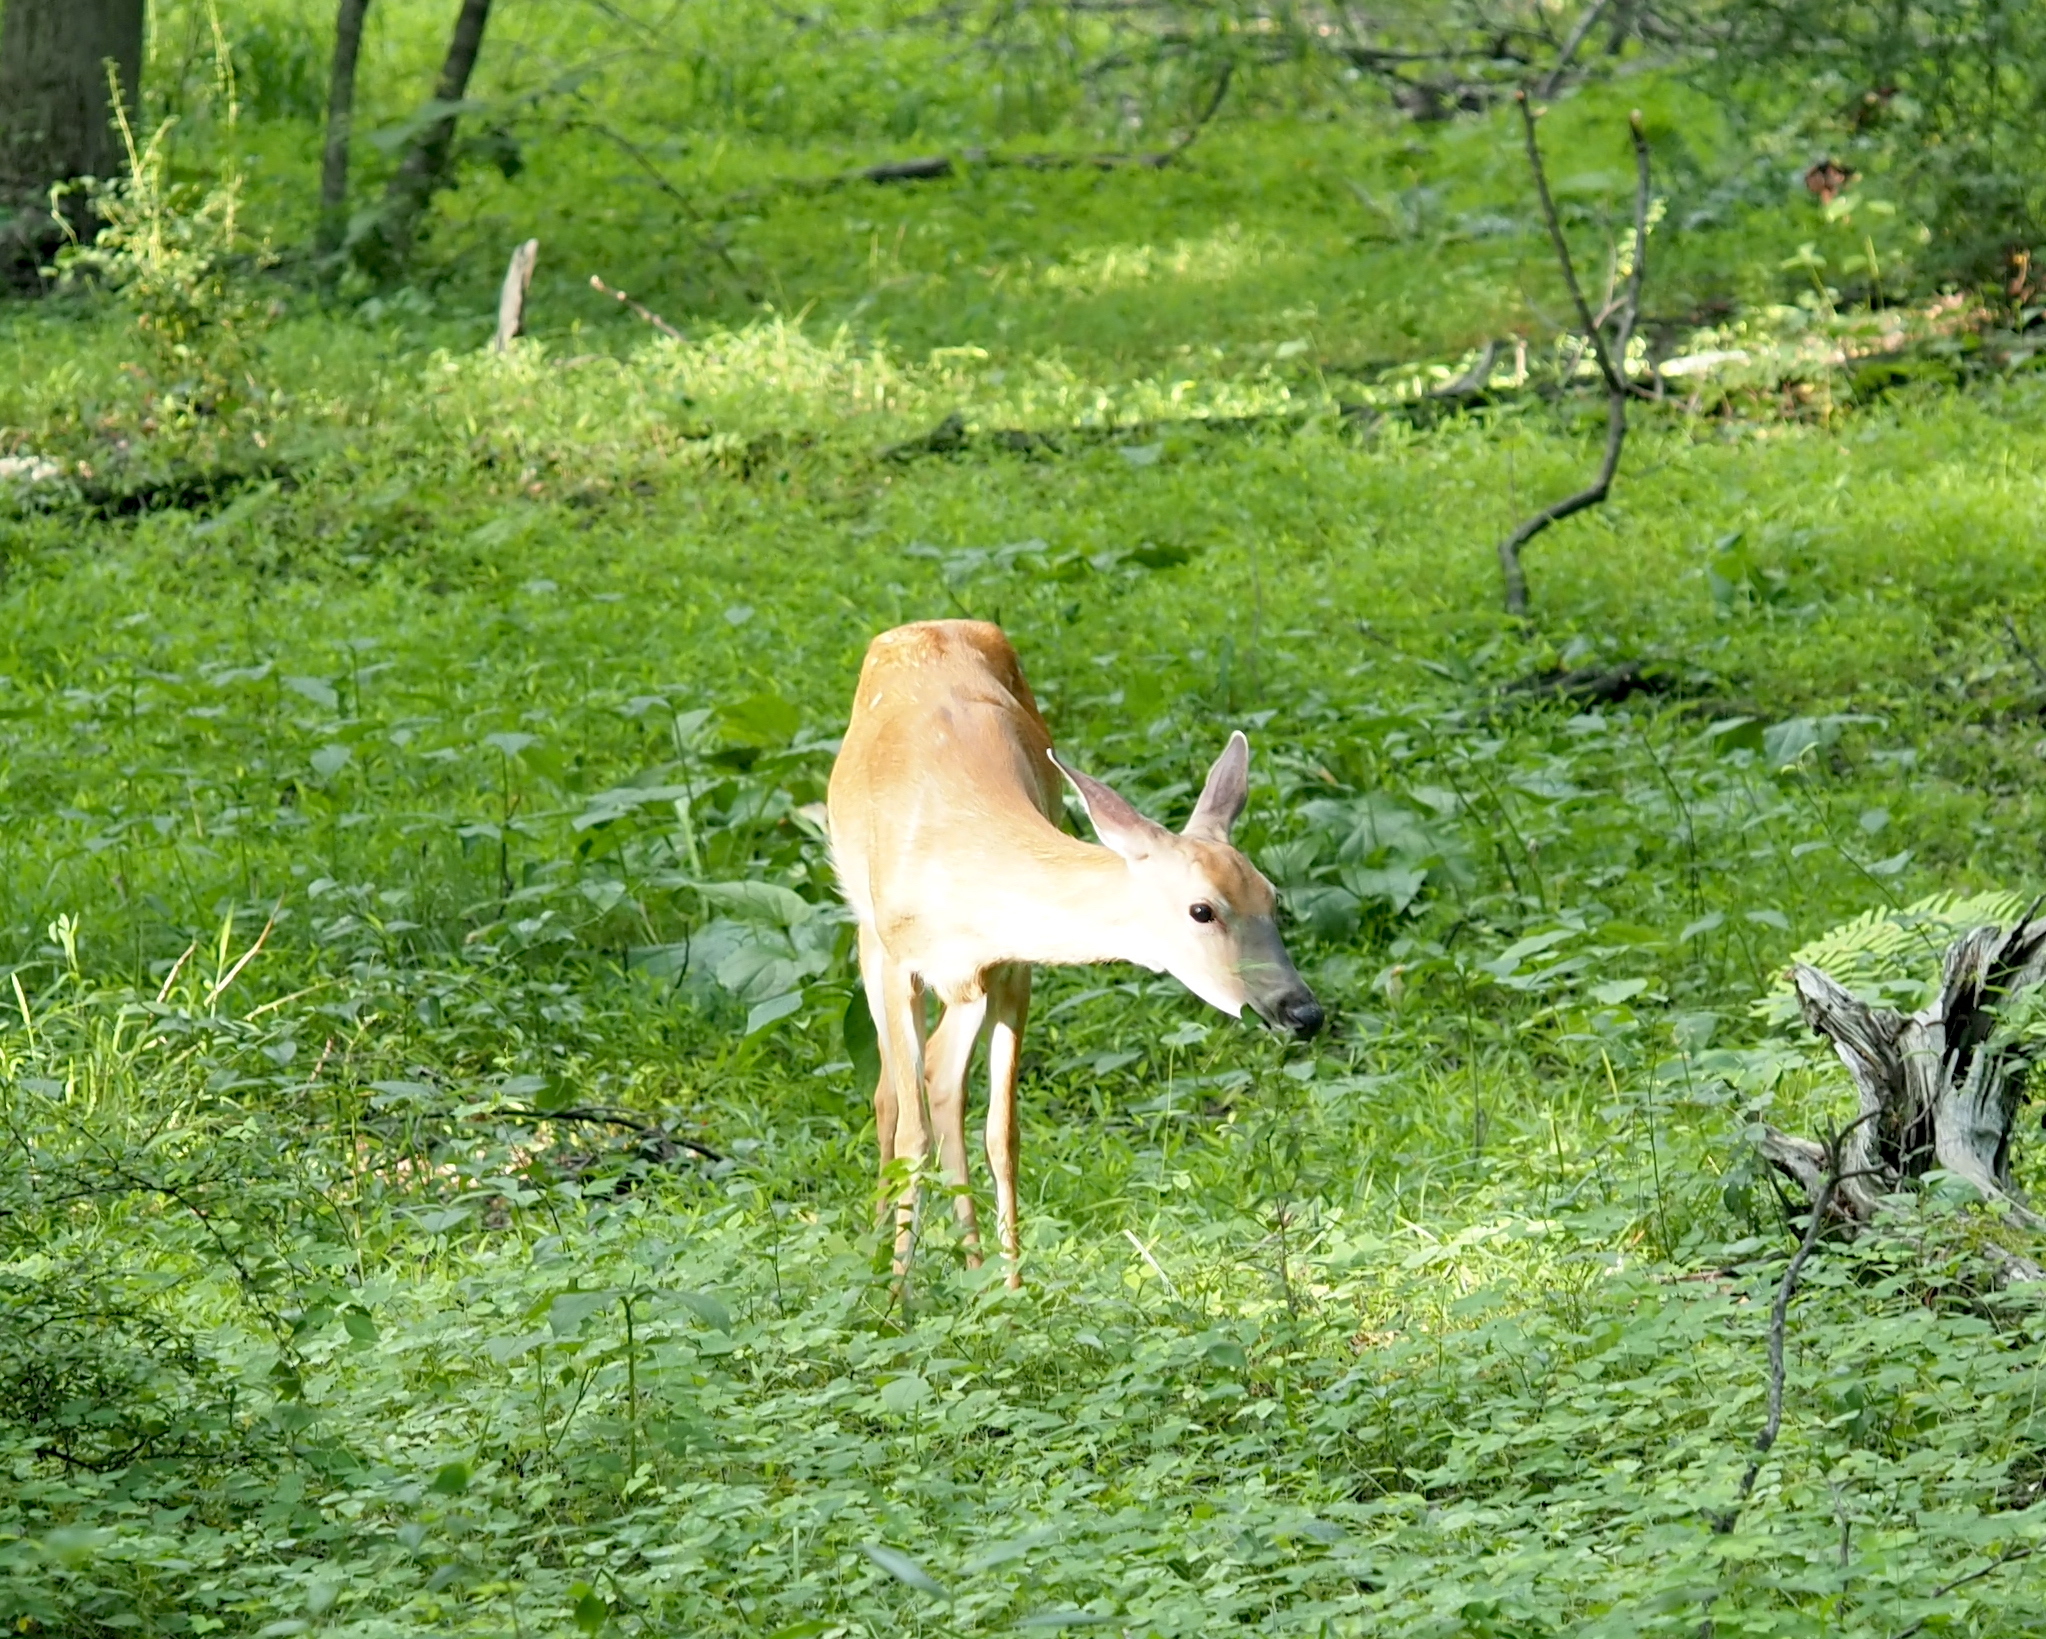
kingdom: Animalia
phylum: Chordata
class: Mammalia
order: Artiodactyla
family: Cervidae
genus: Odocoileus
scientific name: Odocoileus virginianus
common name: White-tailed deer
